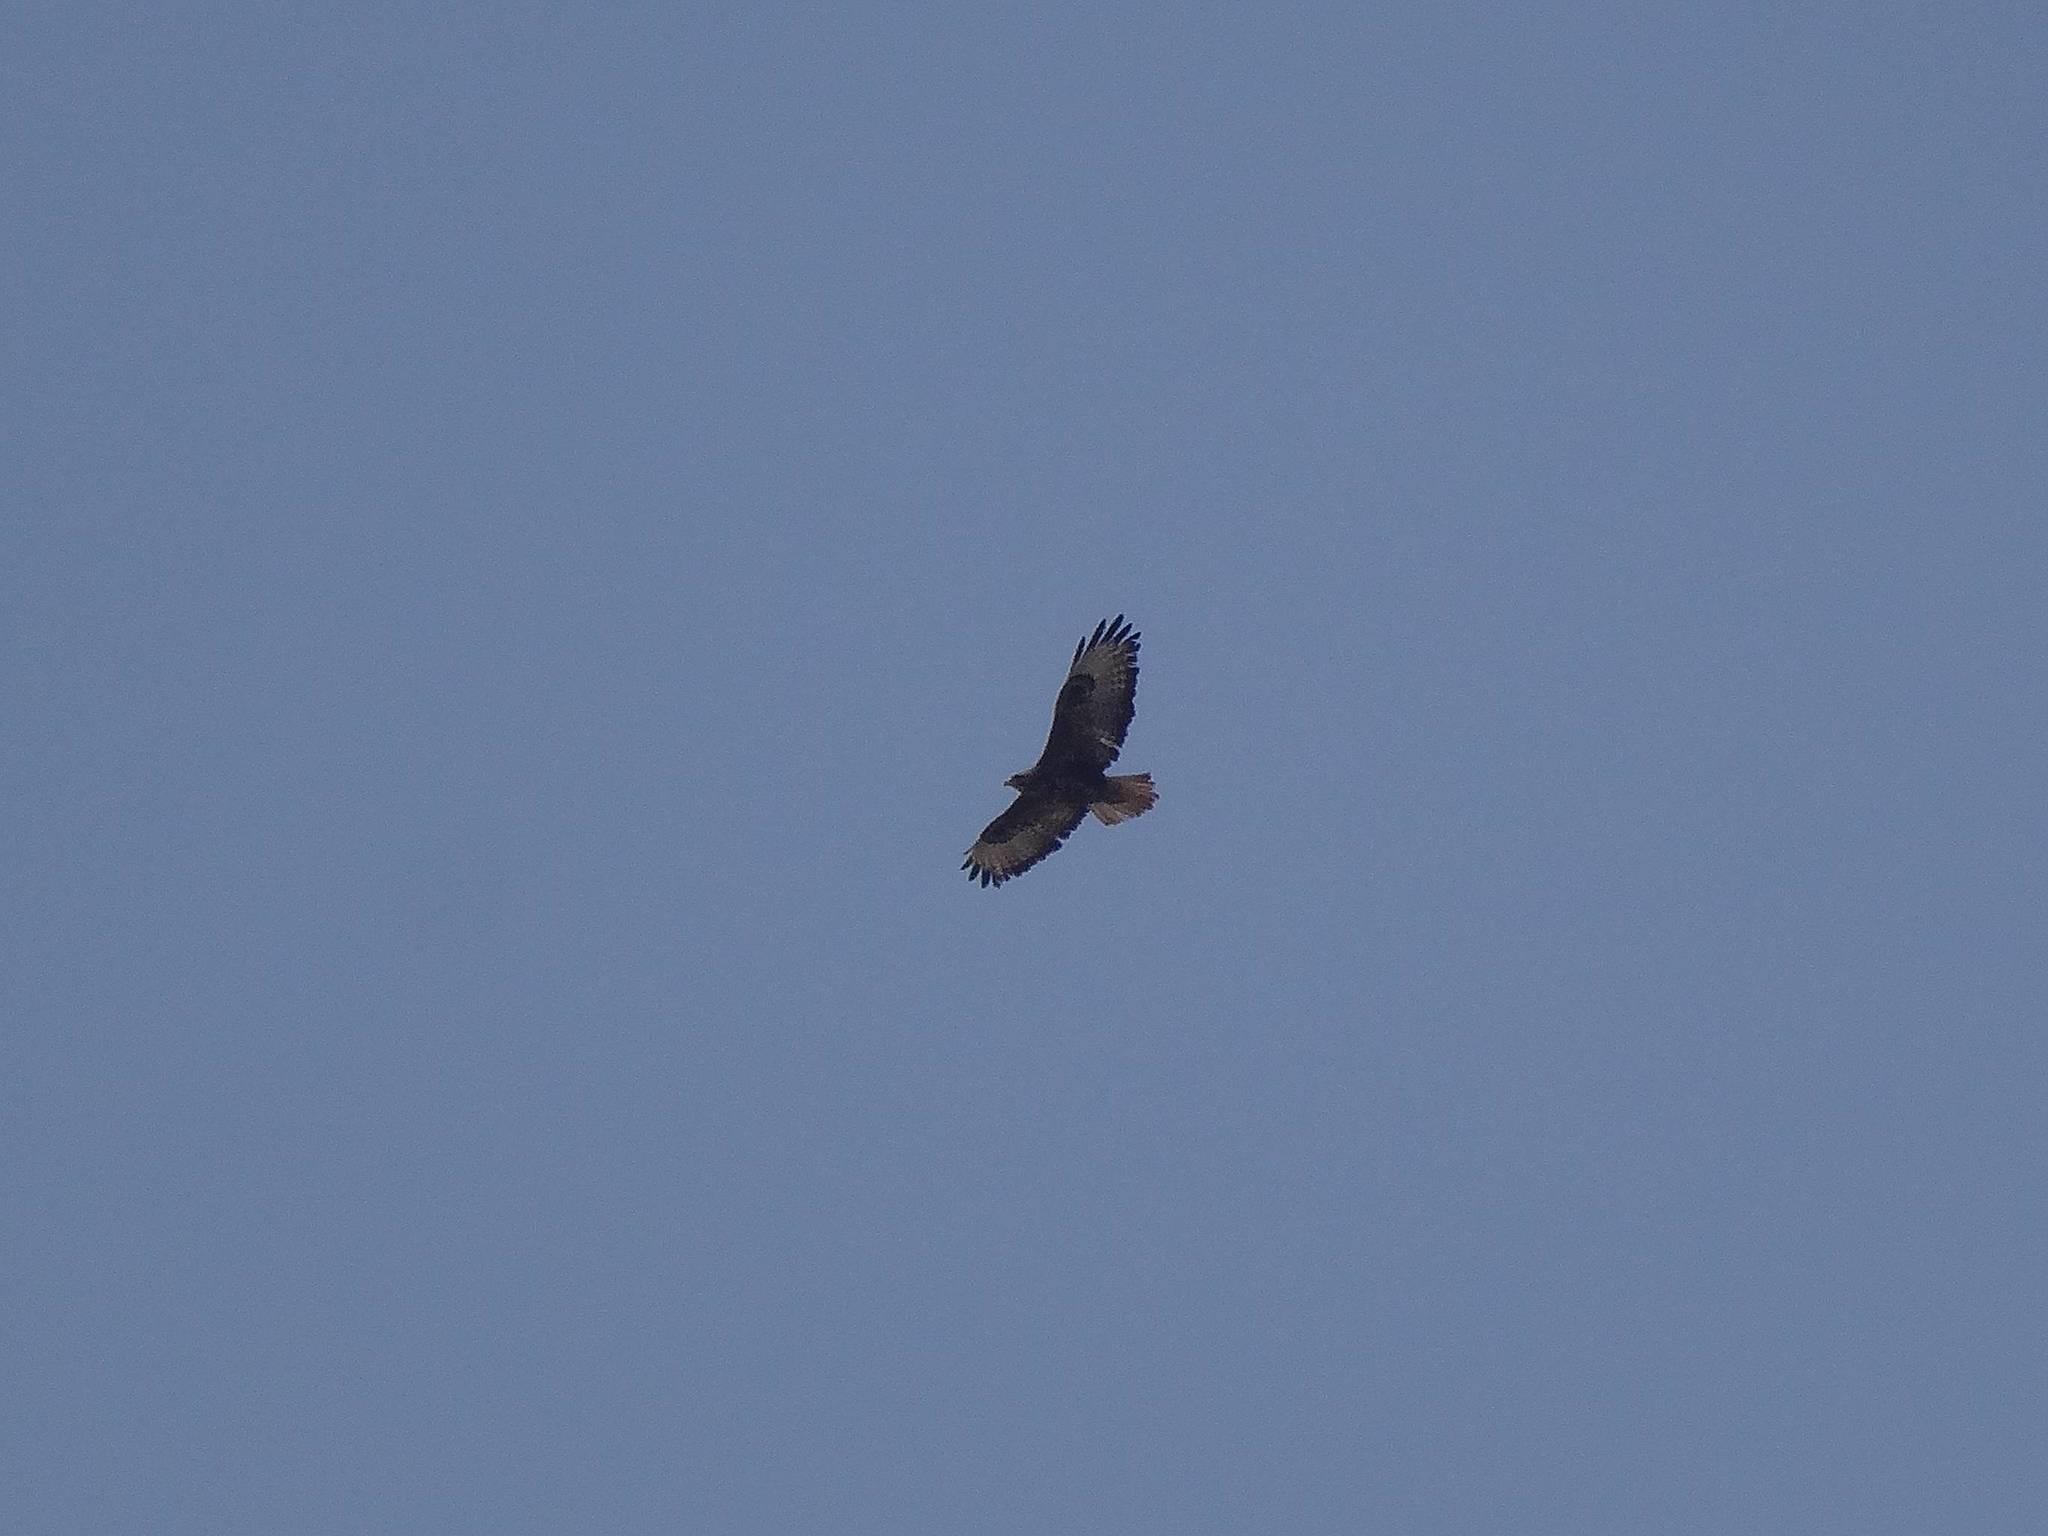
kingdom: Animalia
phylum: Chordata
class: Aves
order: Accipitriformes
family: Accipitridae
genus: Buteo
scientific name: Buteo buteo
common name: Common buzzard
